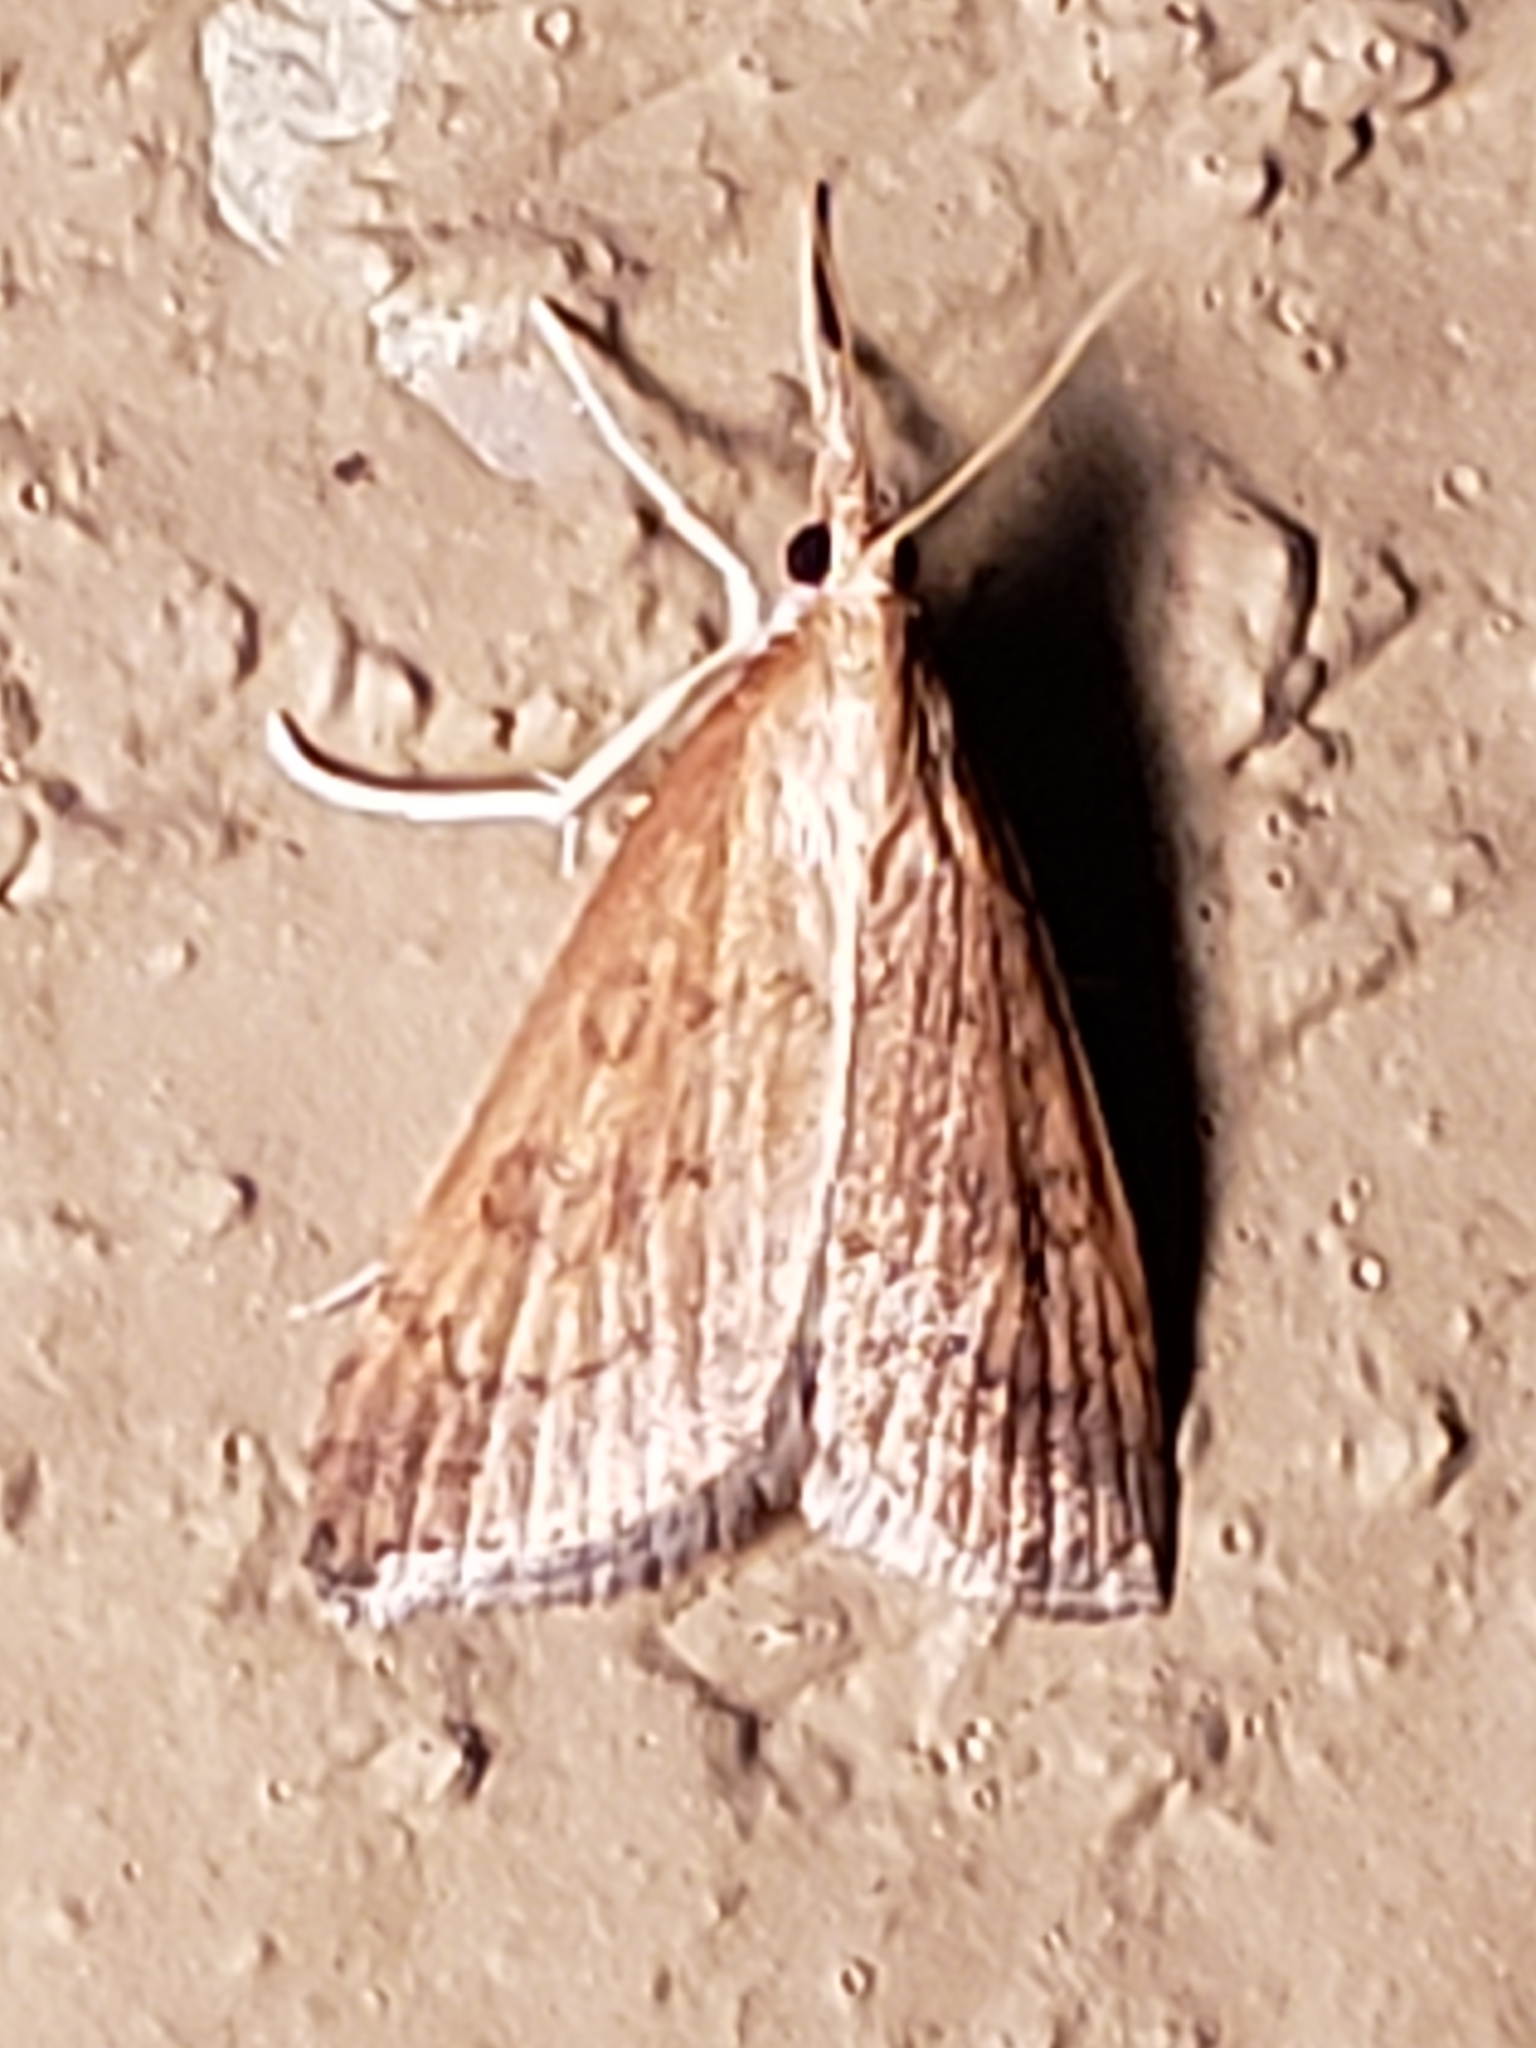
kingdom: Animalia
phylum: Arthropoda
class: Insecta
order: Lepidoptera
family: Crambidae
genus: Udea
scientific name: Udea rubigalis
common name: Celery leaftier moth
